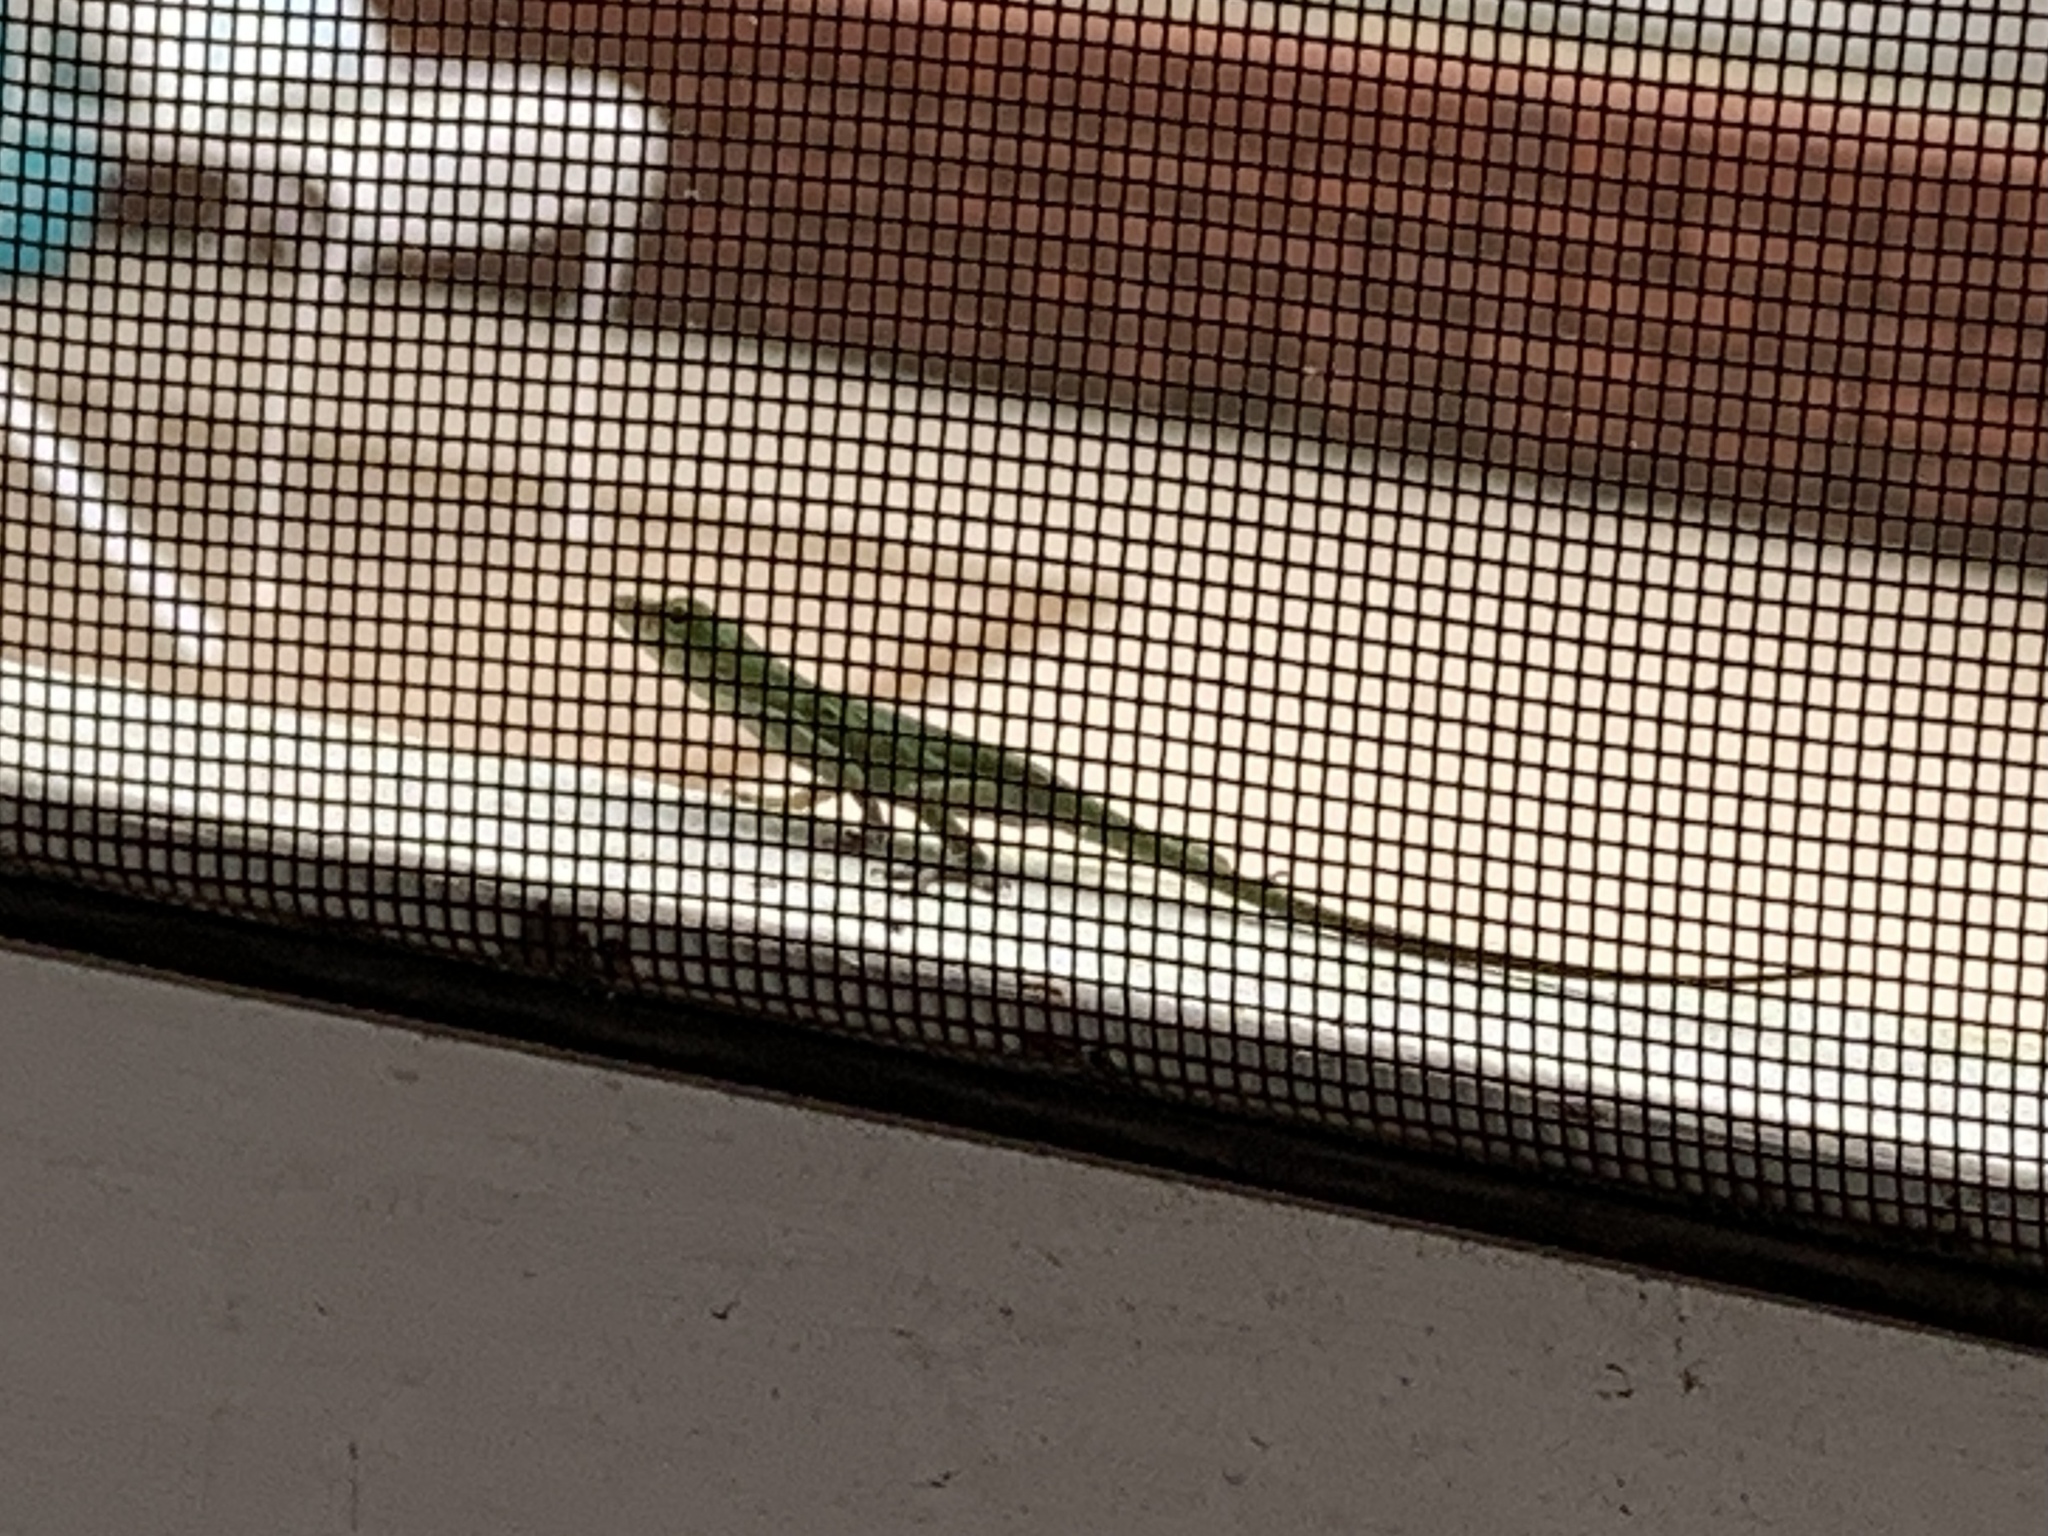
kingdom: Animalia
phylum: Chordata
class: Squamata
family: Dactyloidae
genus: Anolis
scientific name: Anolis carolinensis
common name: Green anole
